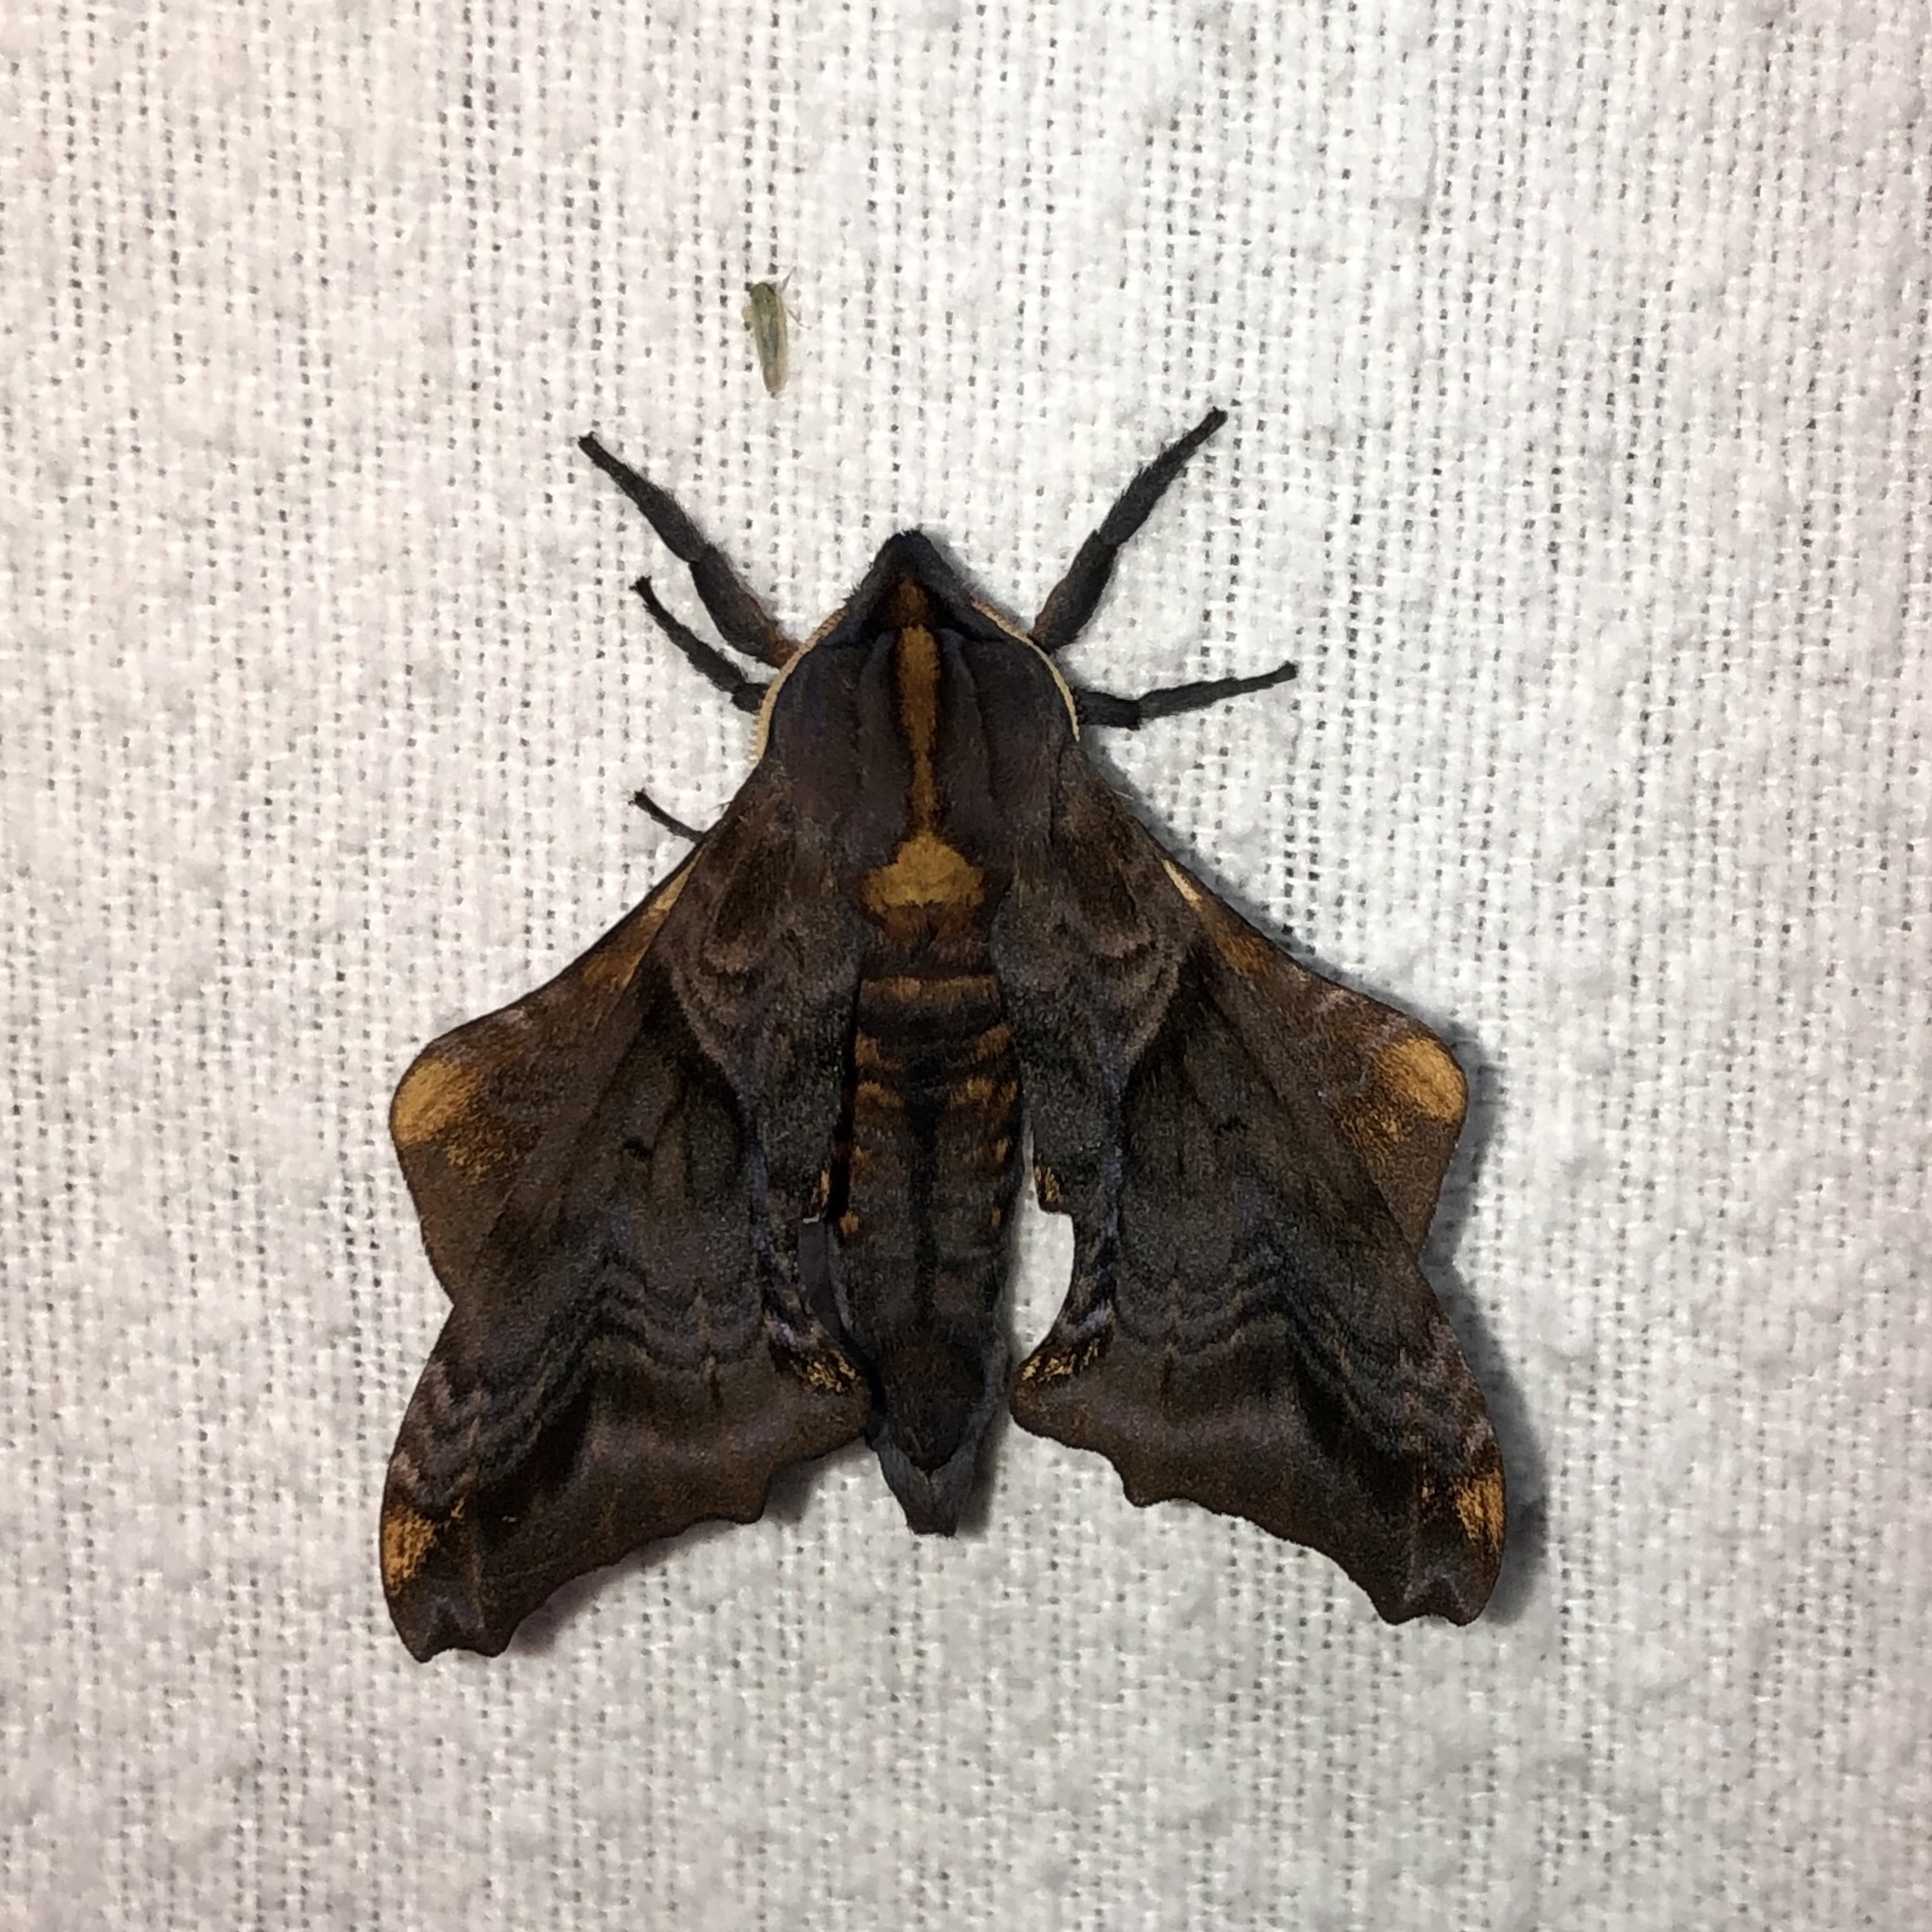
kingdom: Animalia
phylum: Arthropoda
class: Insecta
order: Lepidoptera
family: Sphingidae
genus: Paonias
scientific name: Paonias myops
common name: Small-eyed sphinx
